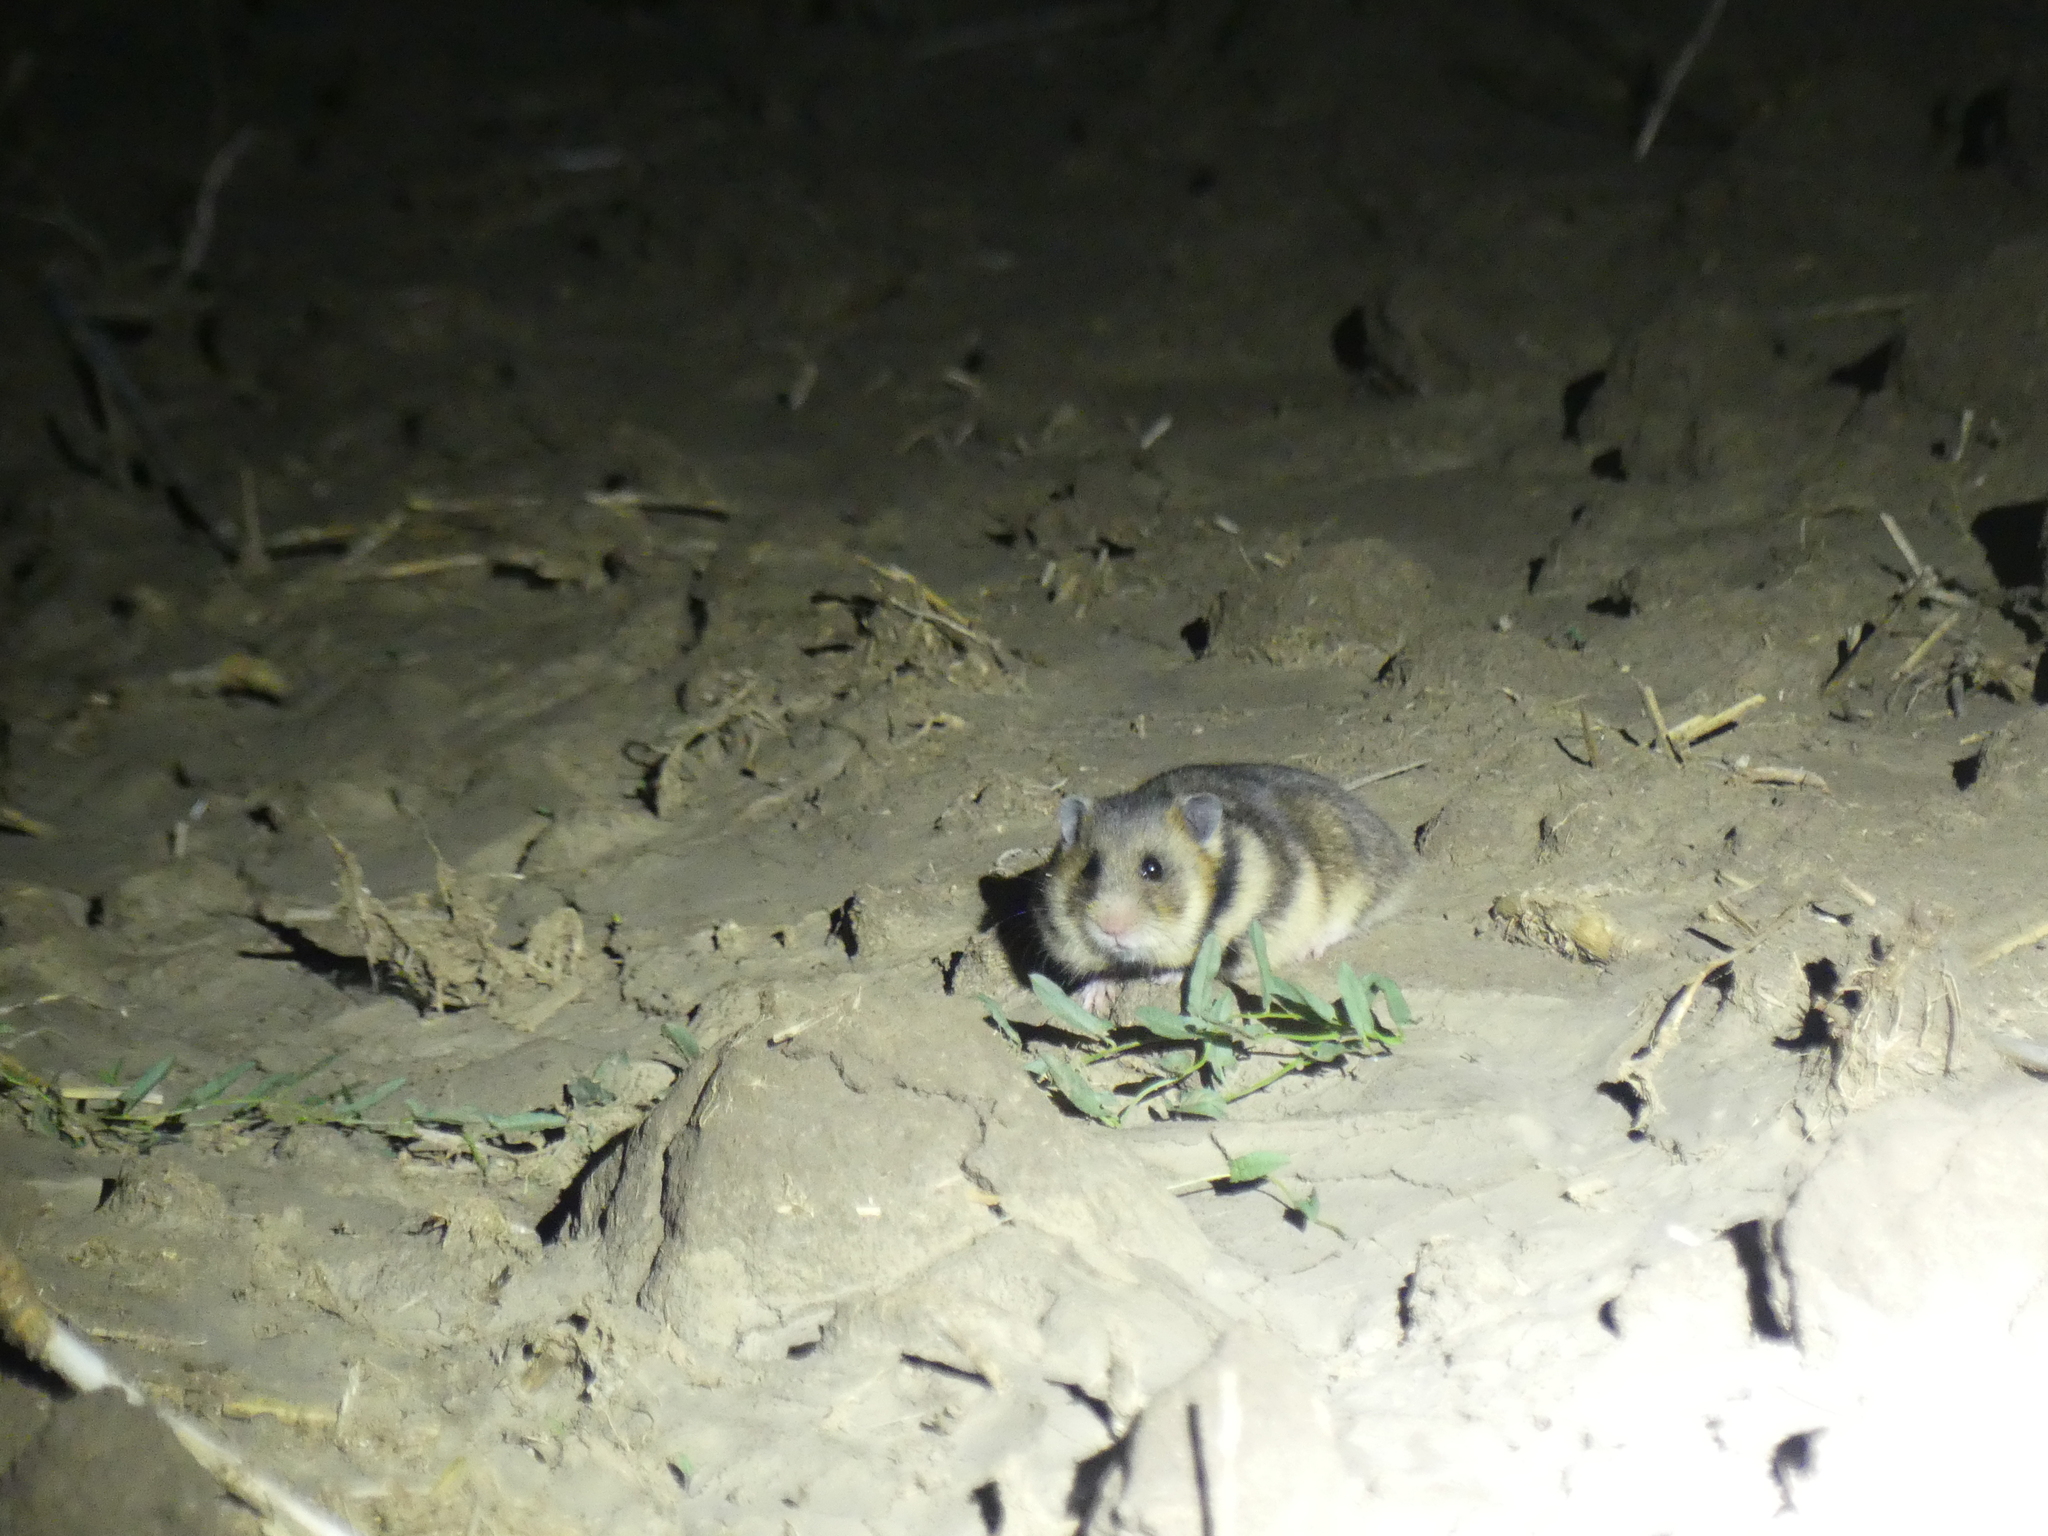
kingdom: Animalia
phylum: Chordata
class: Mammalia
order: Rodentia
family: Cricetidae
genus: Mesocricetus
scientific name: Mesocricetus newtoni
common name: Romanian hamster
